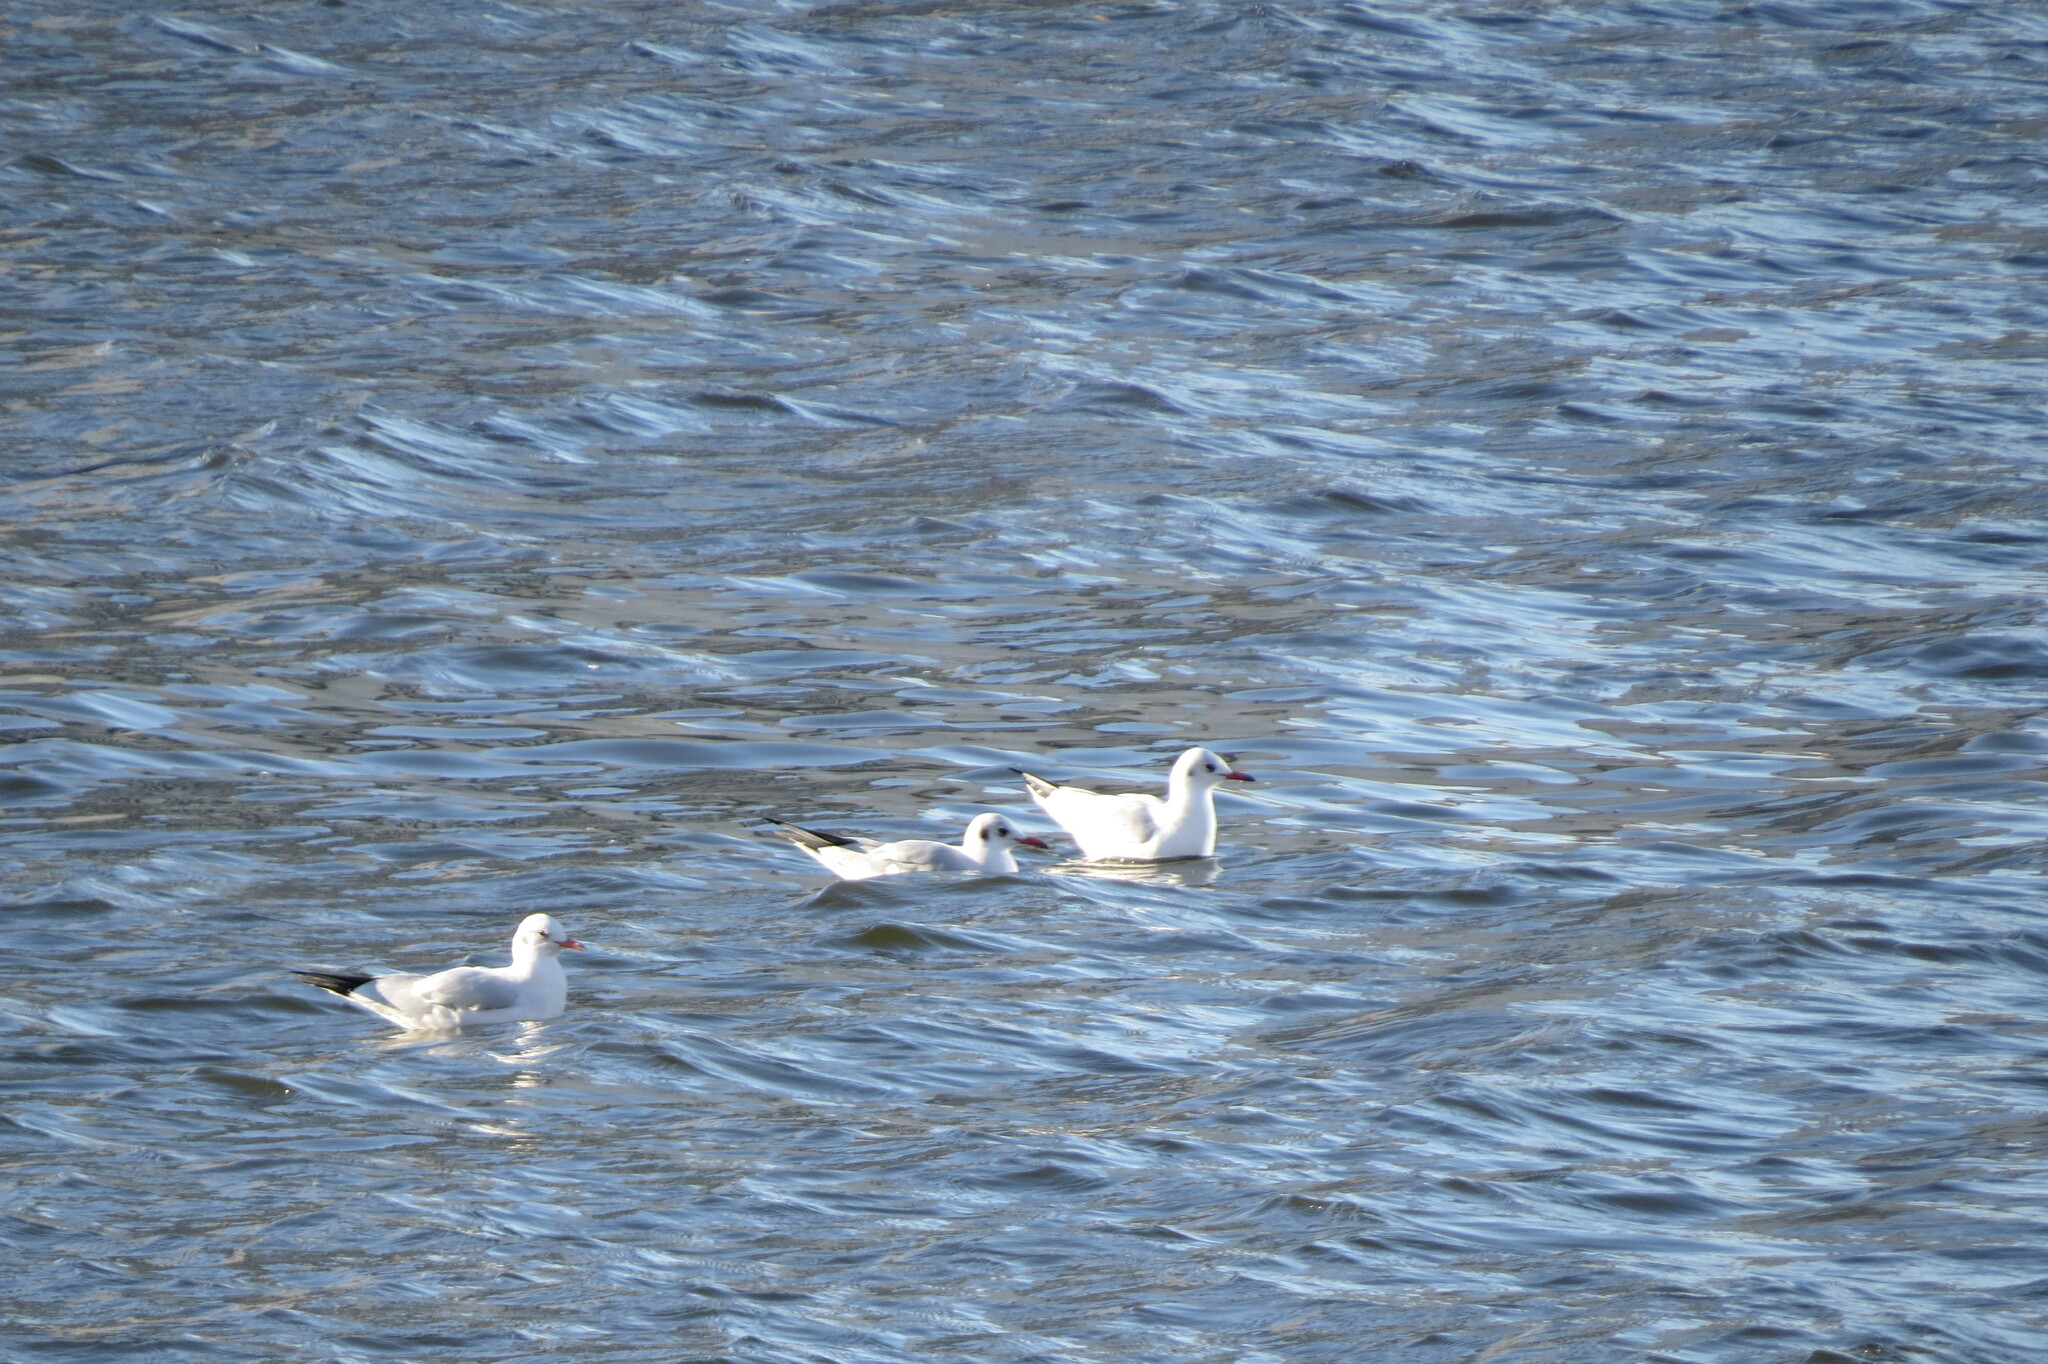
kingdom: Animalia
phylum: Chordata
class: Aves
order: Charadriiformes
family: Laridae
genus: Chroicocephalus
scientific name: Chroicocephalus ridibundus
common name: Black-headed gull
